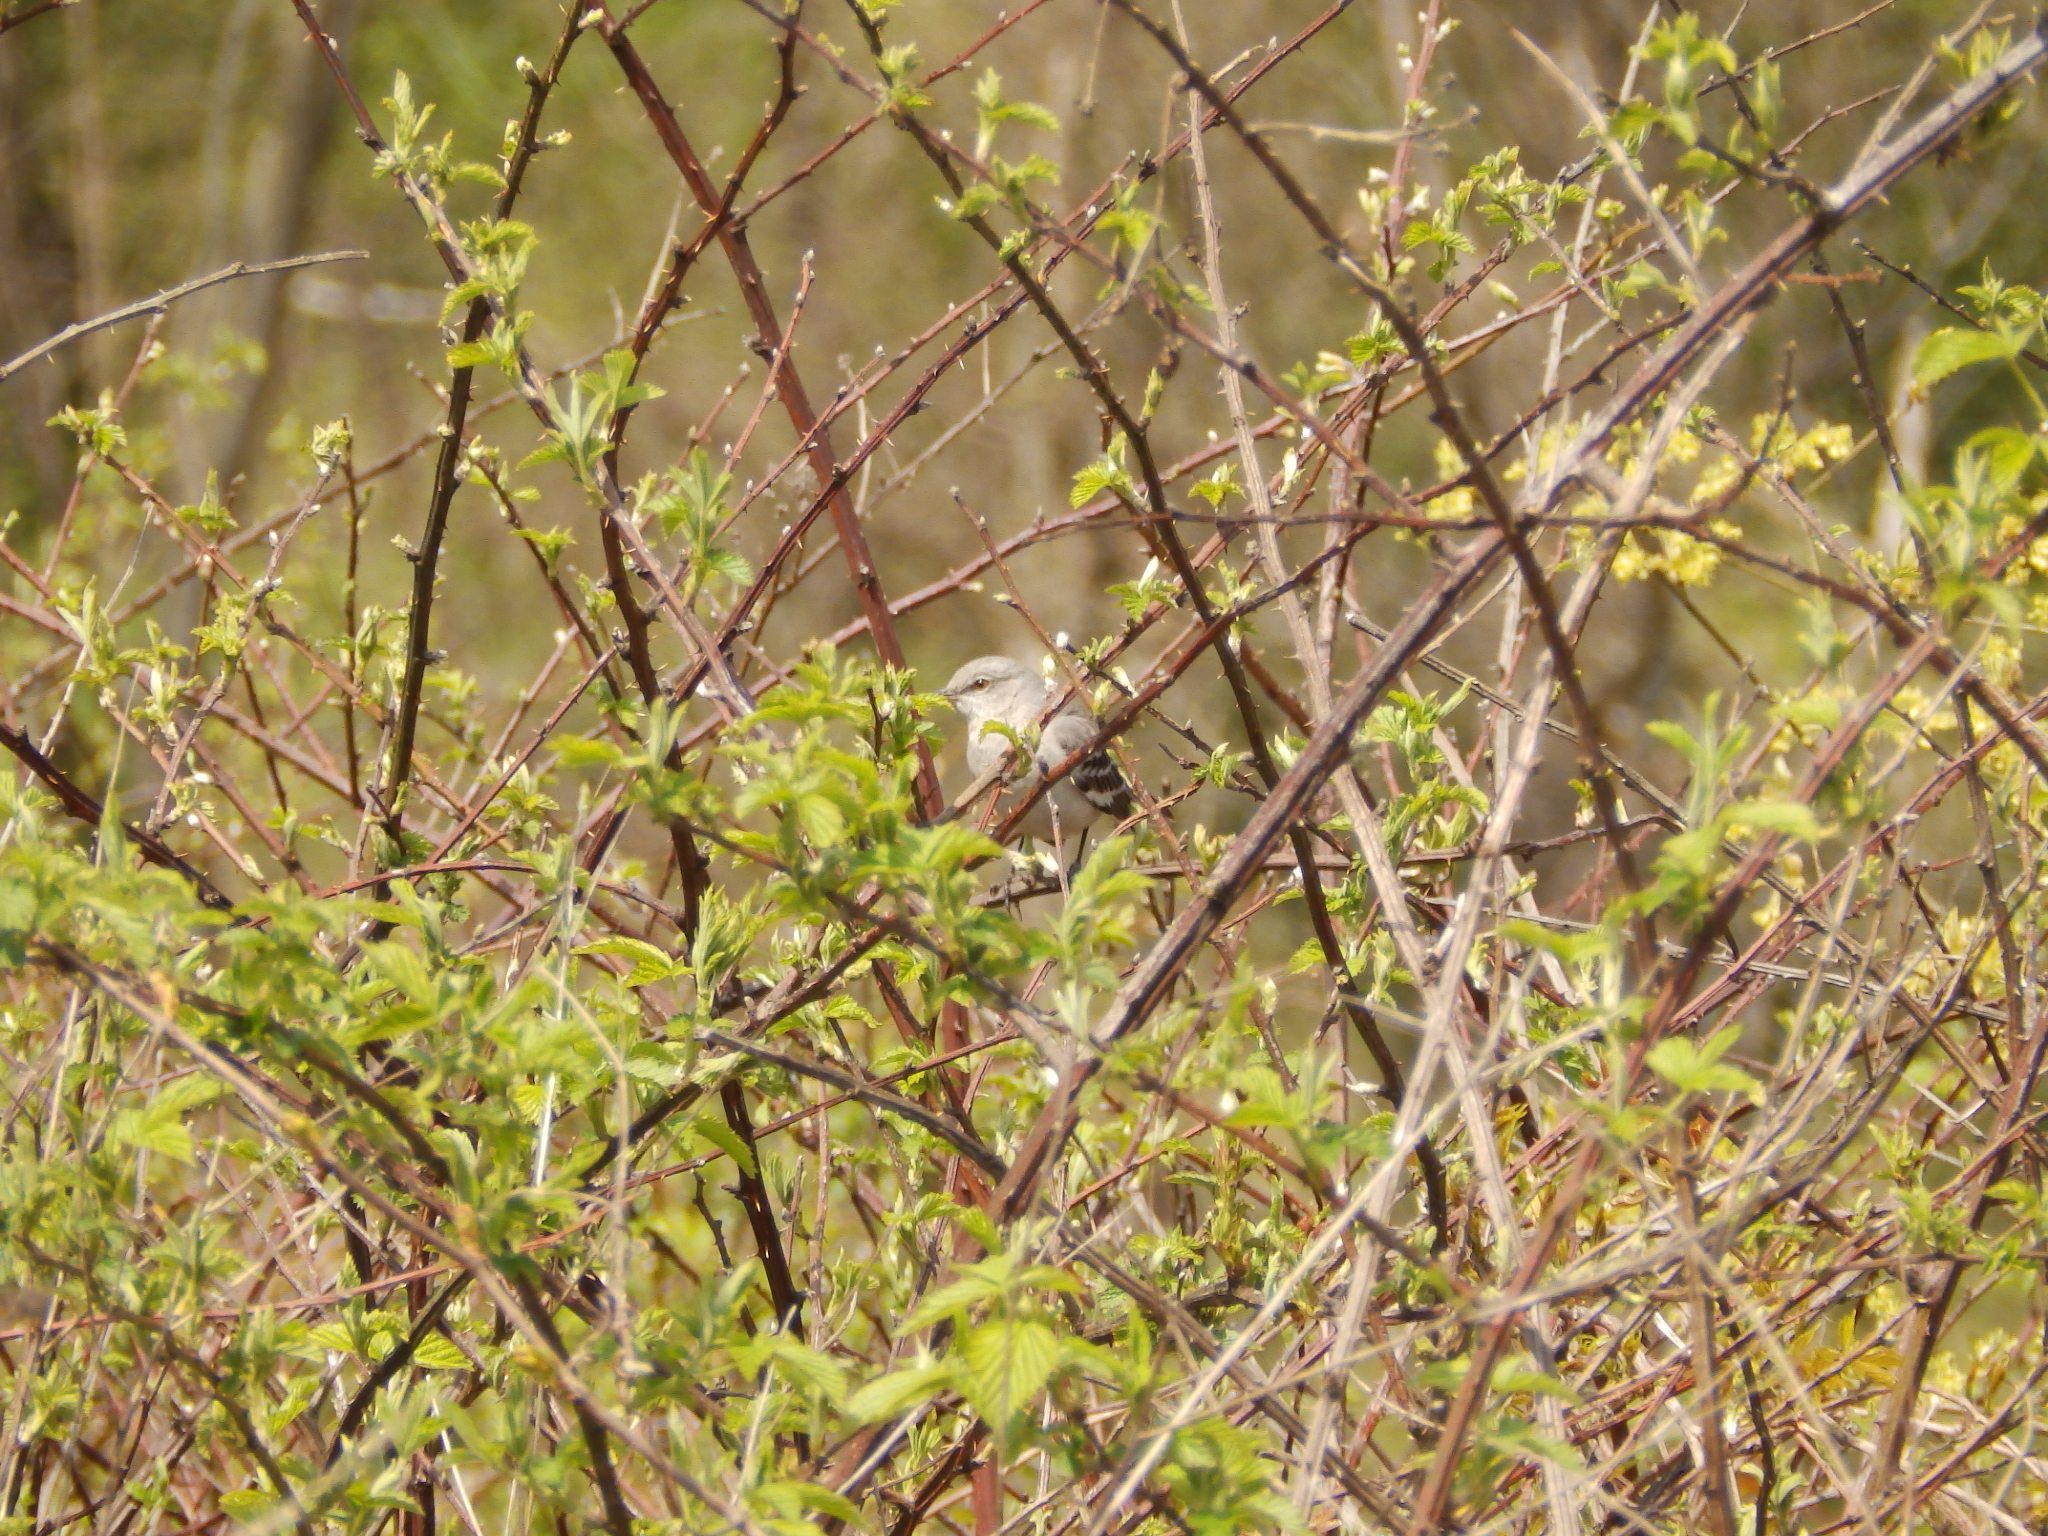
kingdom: Animalia
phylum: Chordata
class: Aves
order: Passeriformes
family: Mimidae
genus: Mimus
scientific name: Mimus polyglottos
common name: Northern mockingbird
